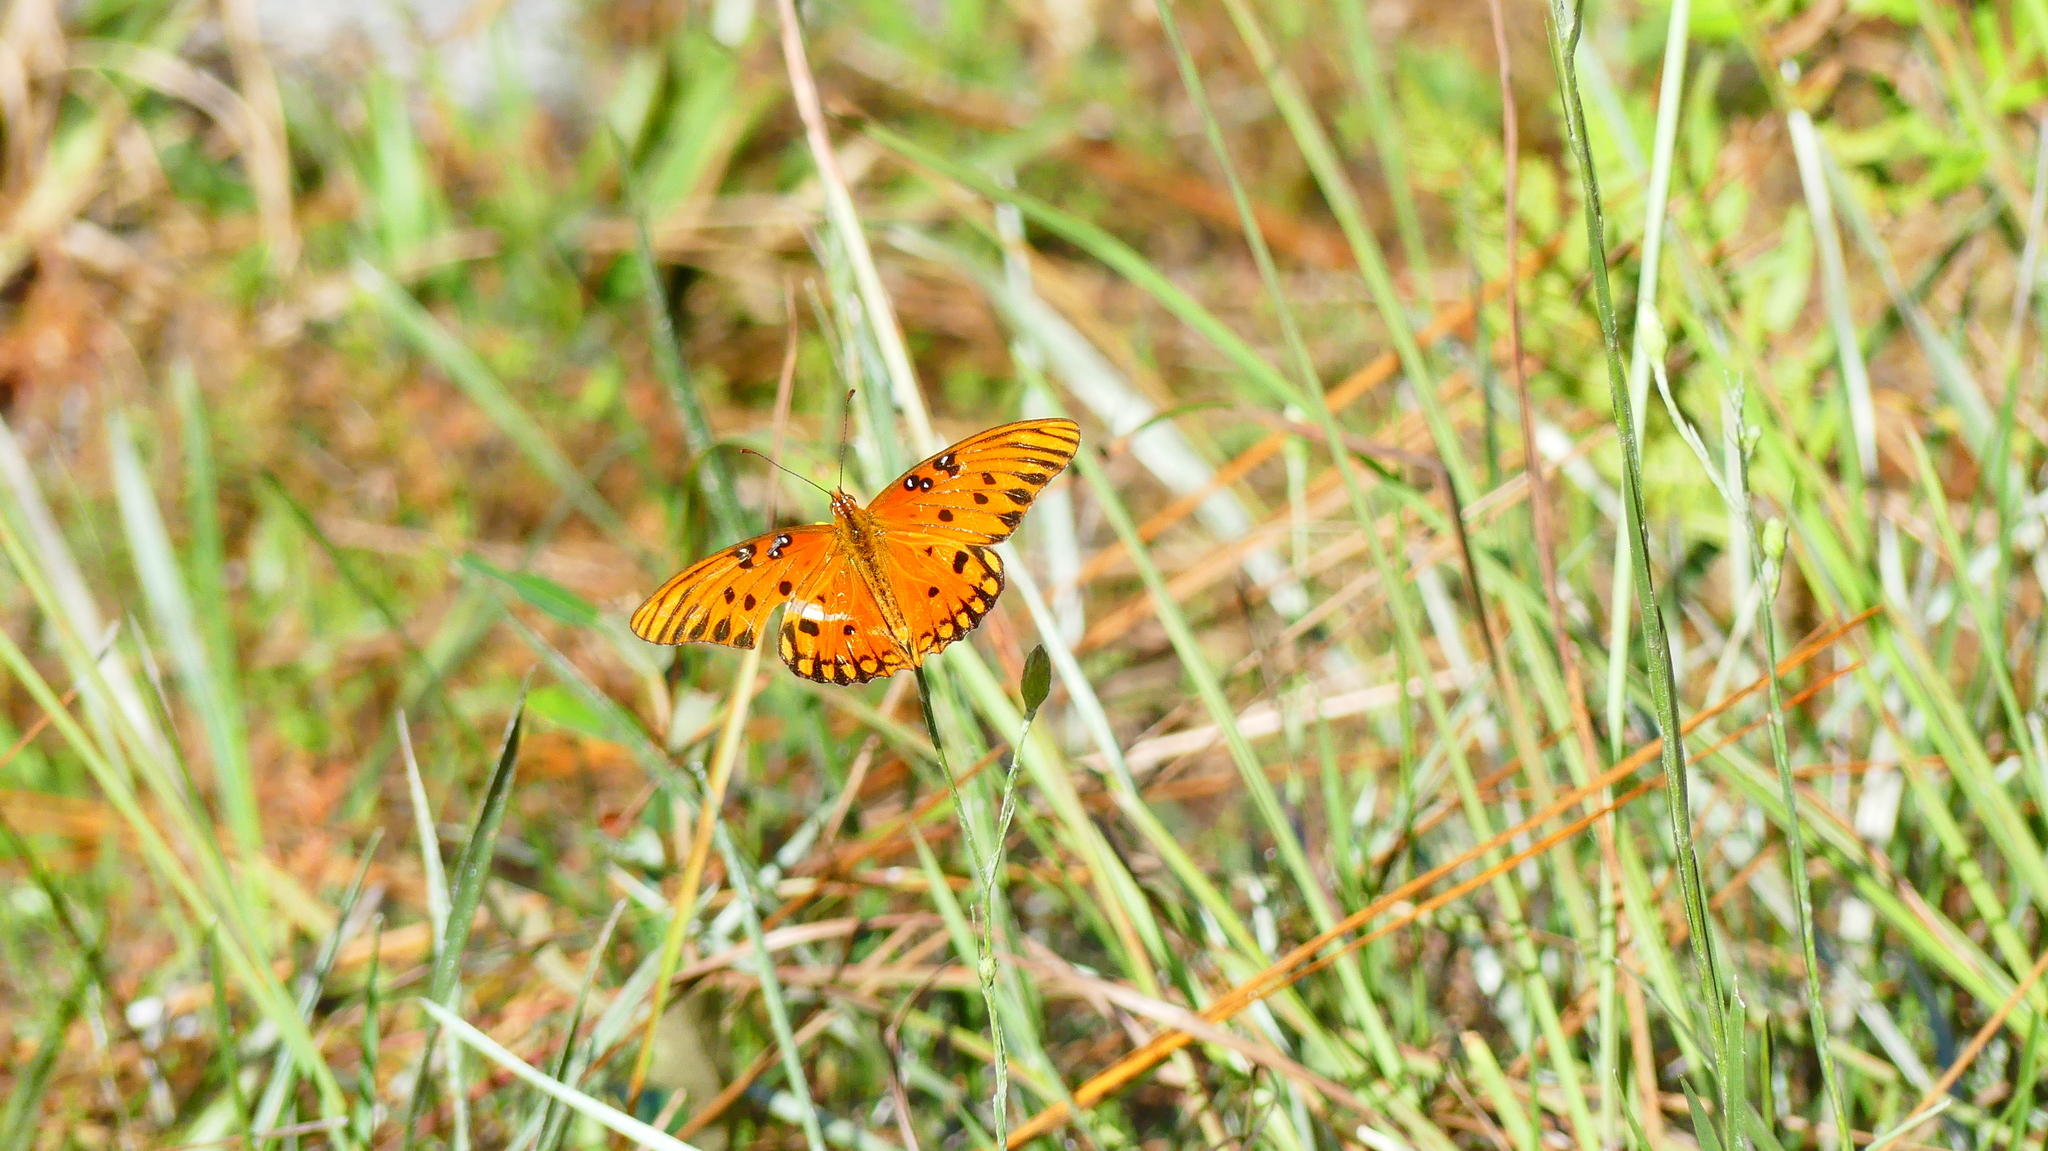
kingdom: Animalia
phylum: Arthropoda
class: Insecta
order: Lepidoptera
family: Nymphalidae
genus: Dione
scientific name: Dione vanillae
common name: Gulf fritillary
